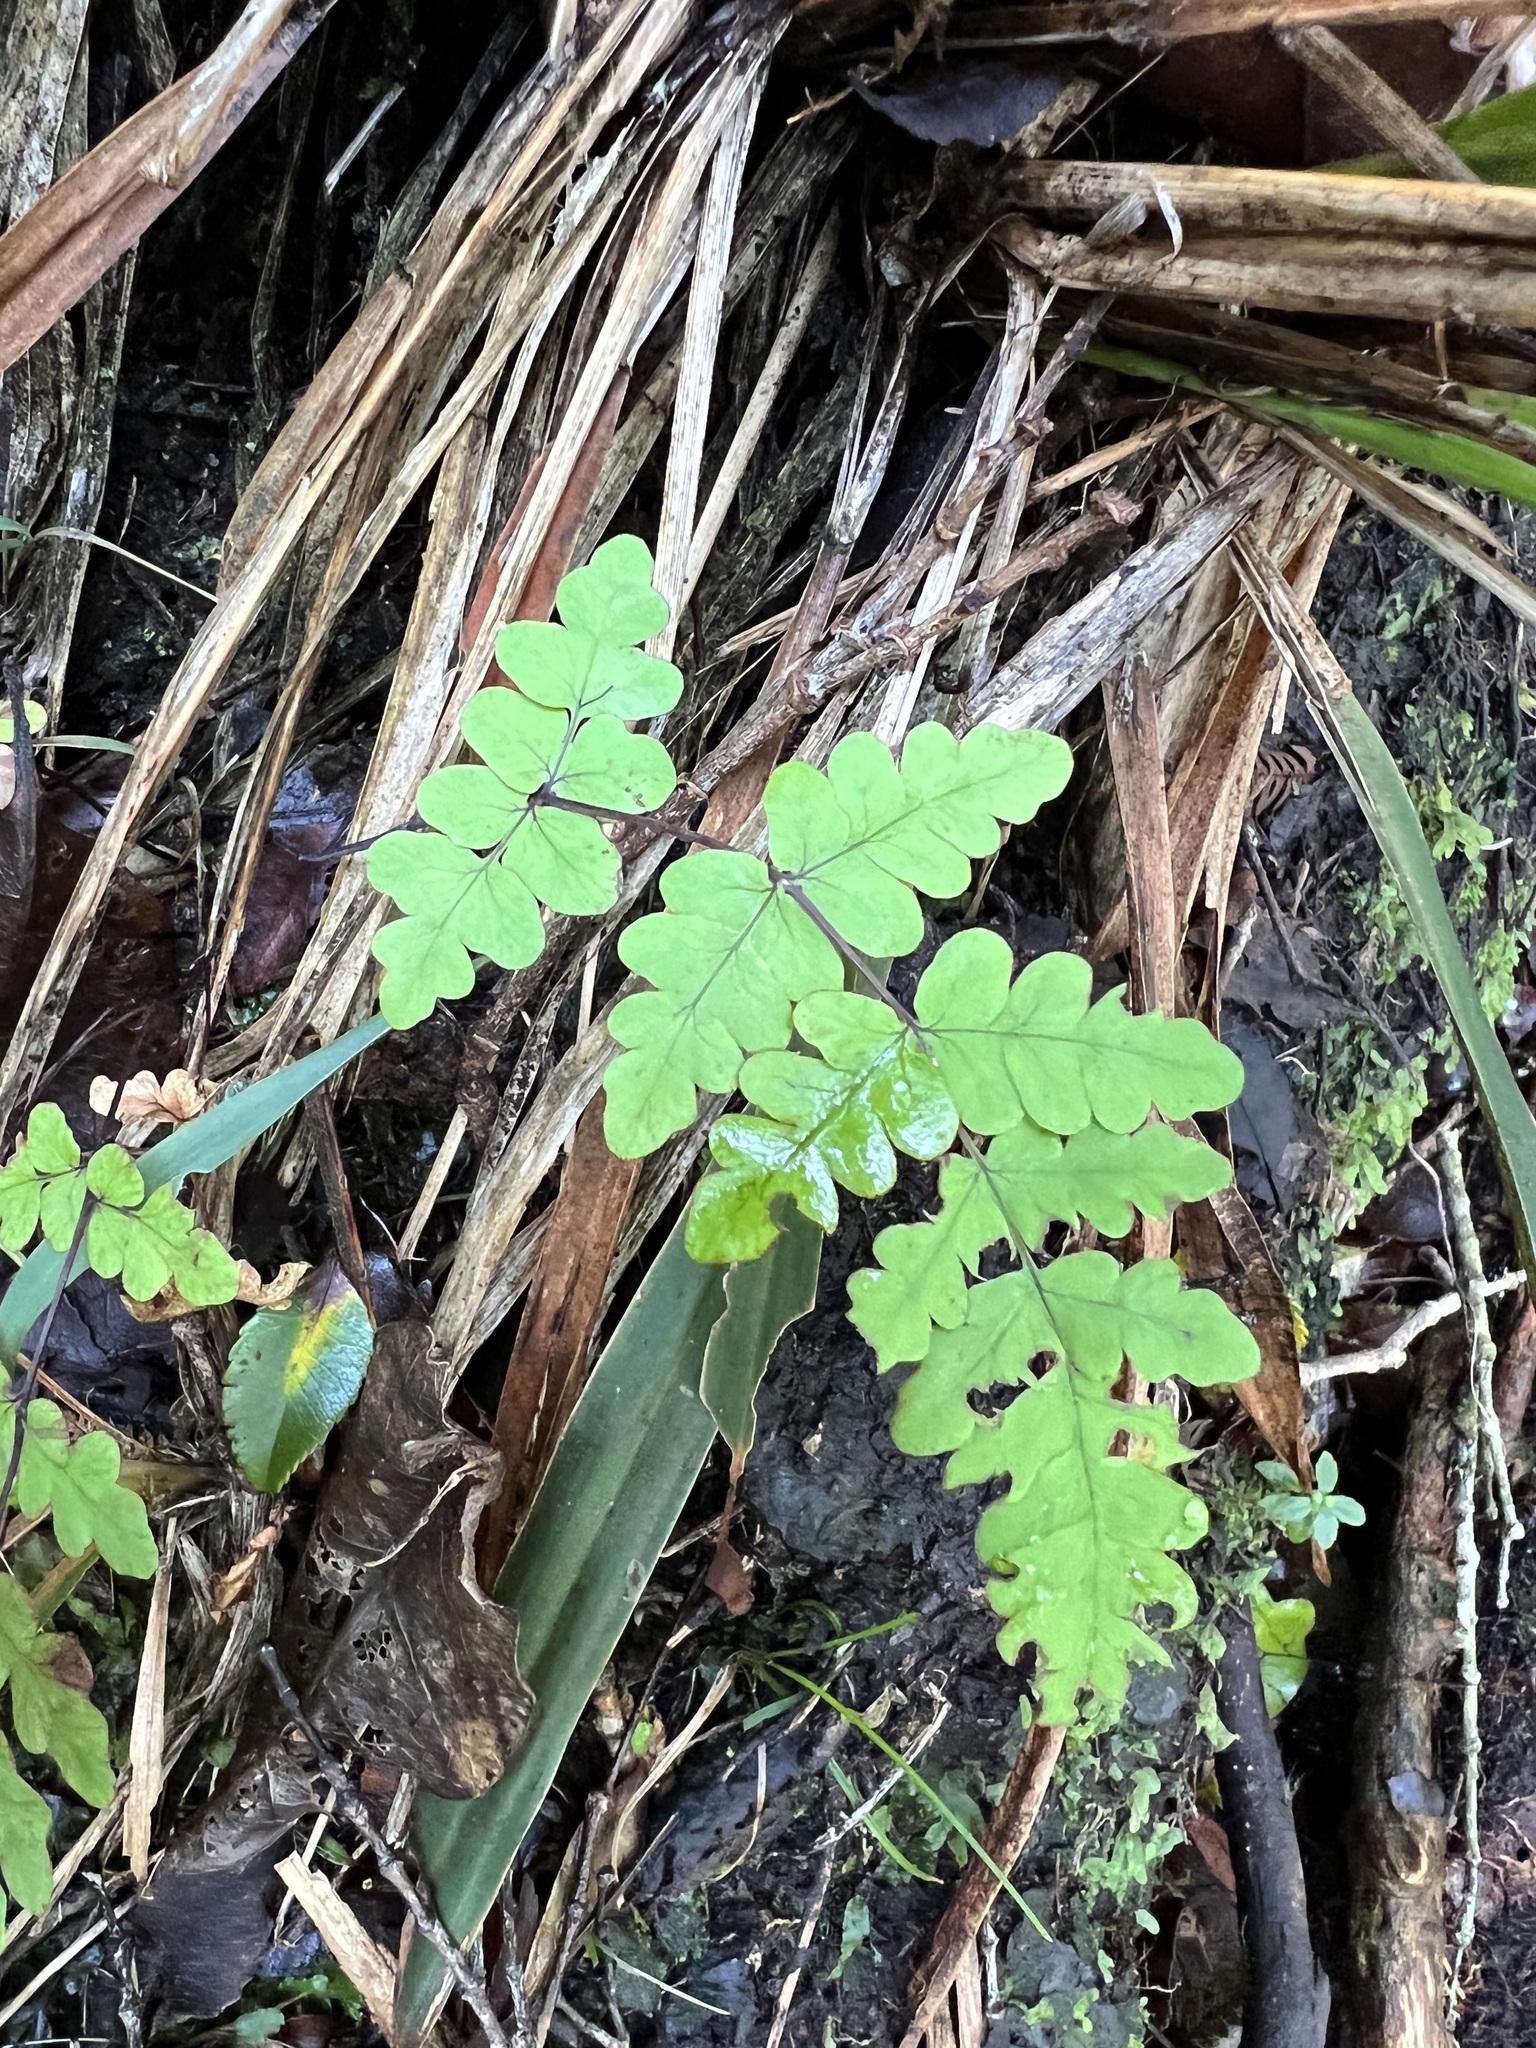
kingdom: Plantae
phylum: Tracheophyta
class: Polypodiopsida
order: Polypodiales
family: Dennstaedtiaceae
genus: Histiopteris
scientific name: Histiopteris incisa
